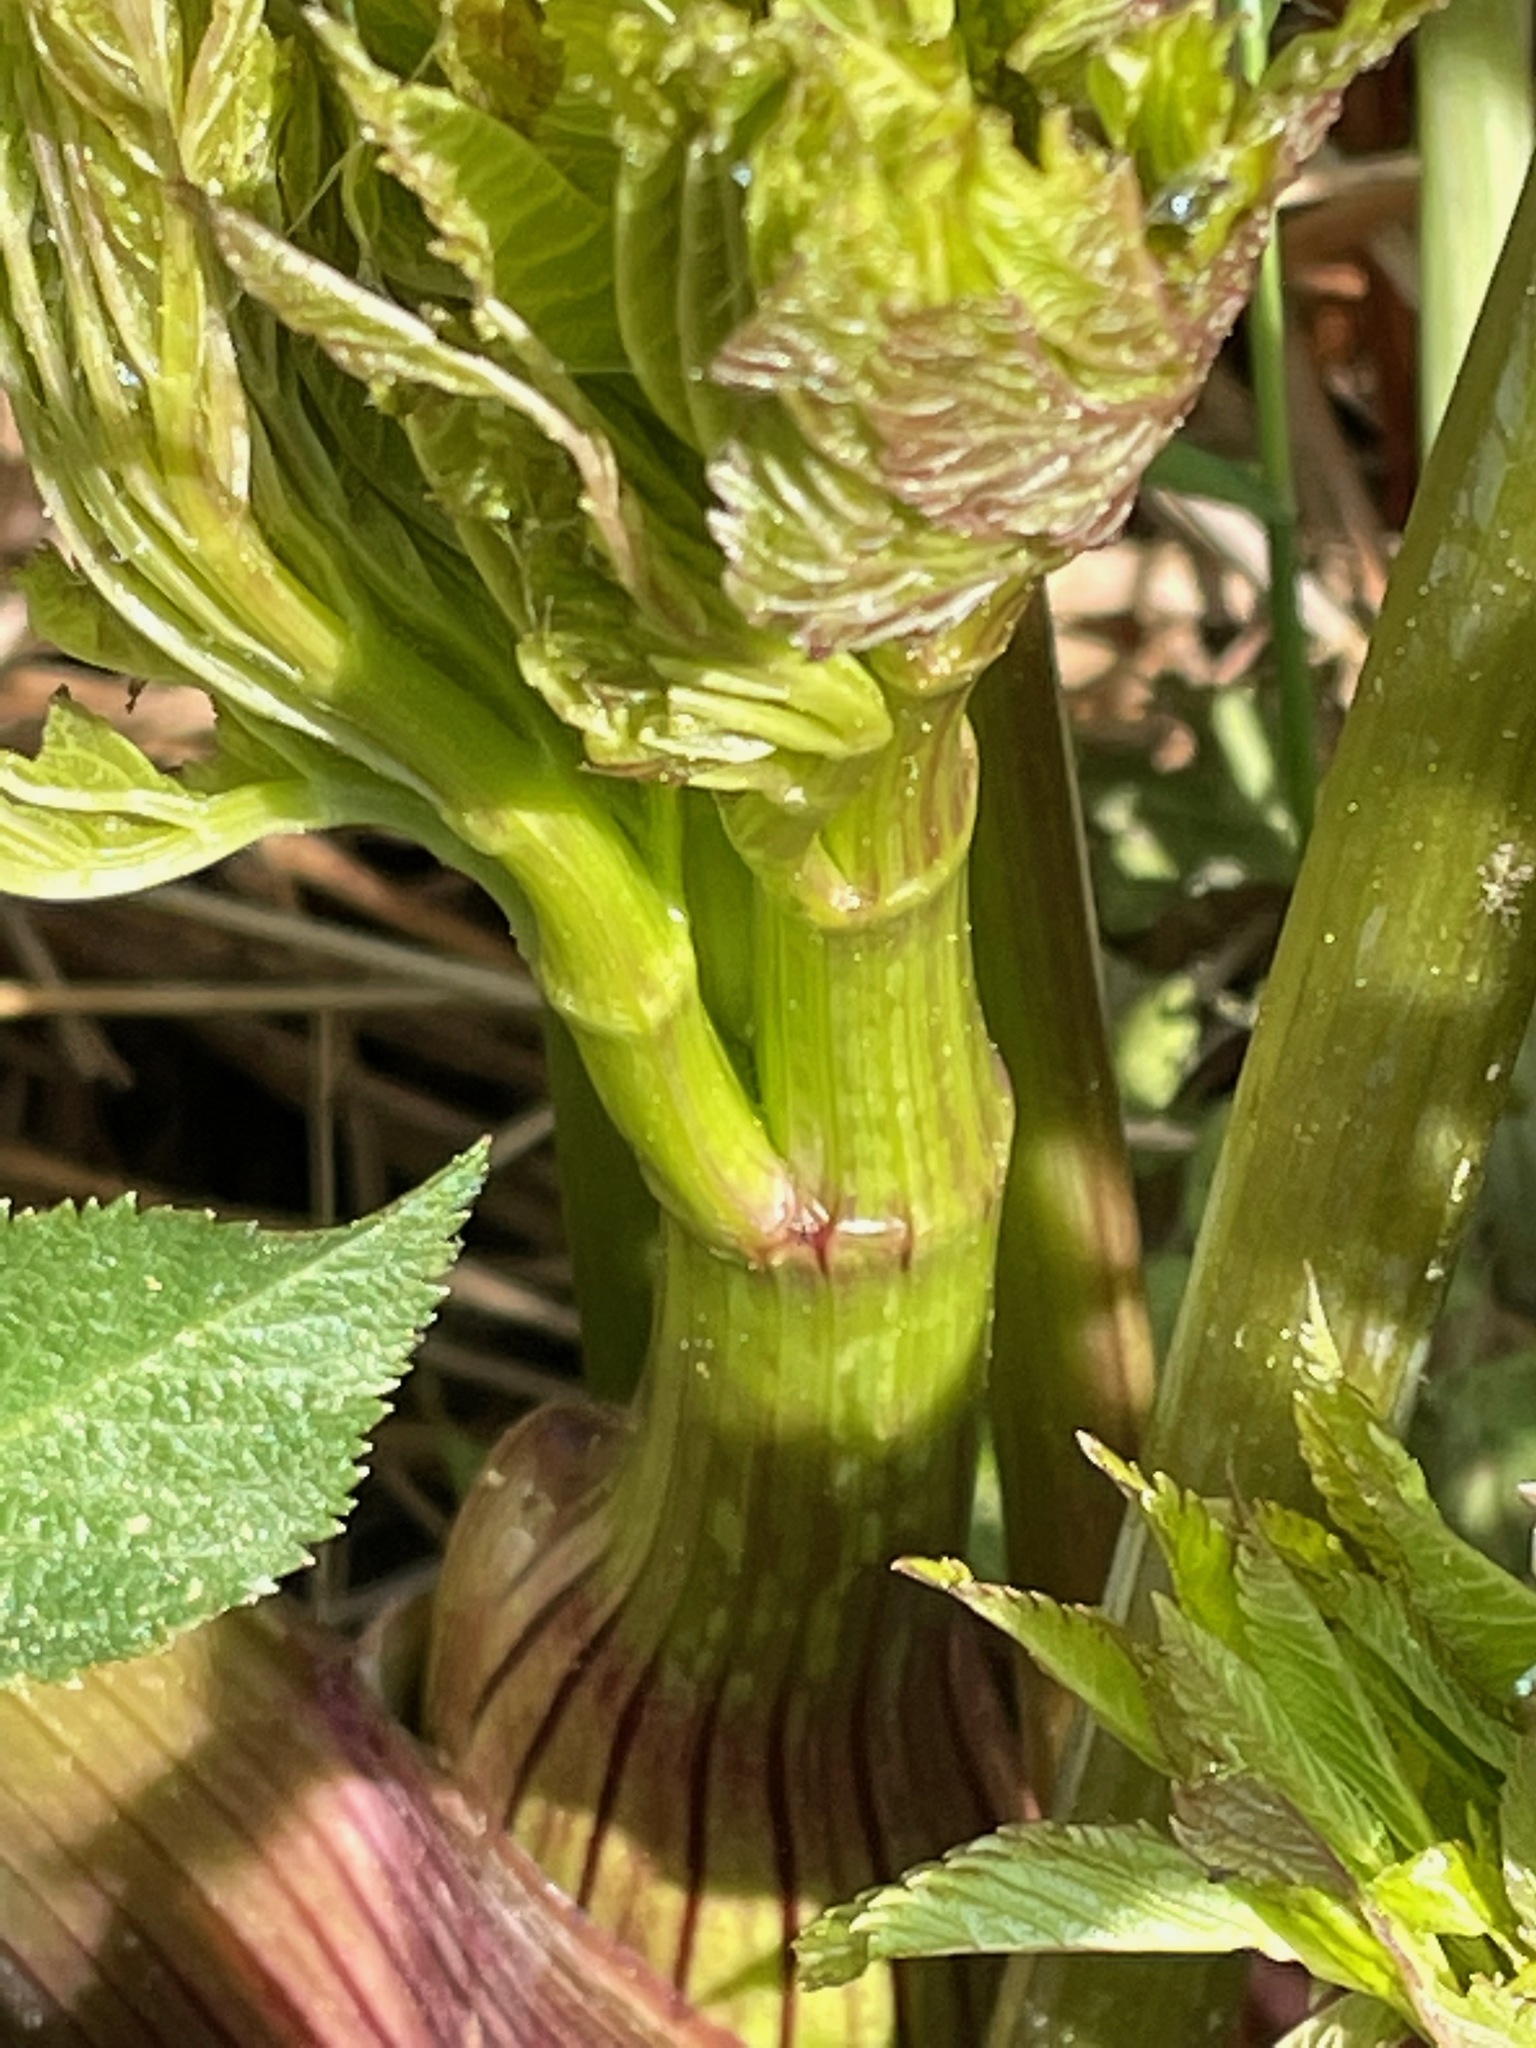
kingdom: Plantae
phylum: Tracheophyta
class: Magnoliopsida
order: Apiales
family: Apiaceae
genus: Angelica
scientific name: Angelica atropurpurea
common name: Great angelica
